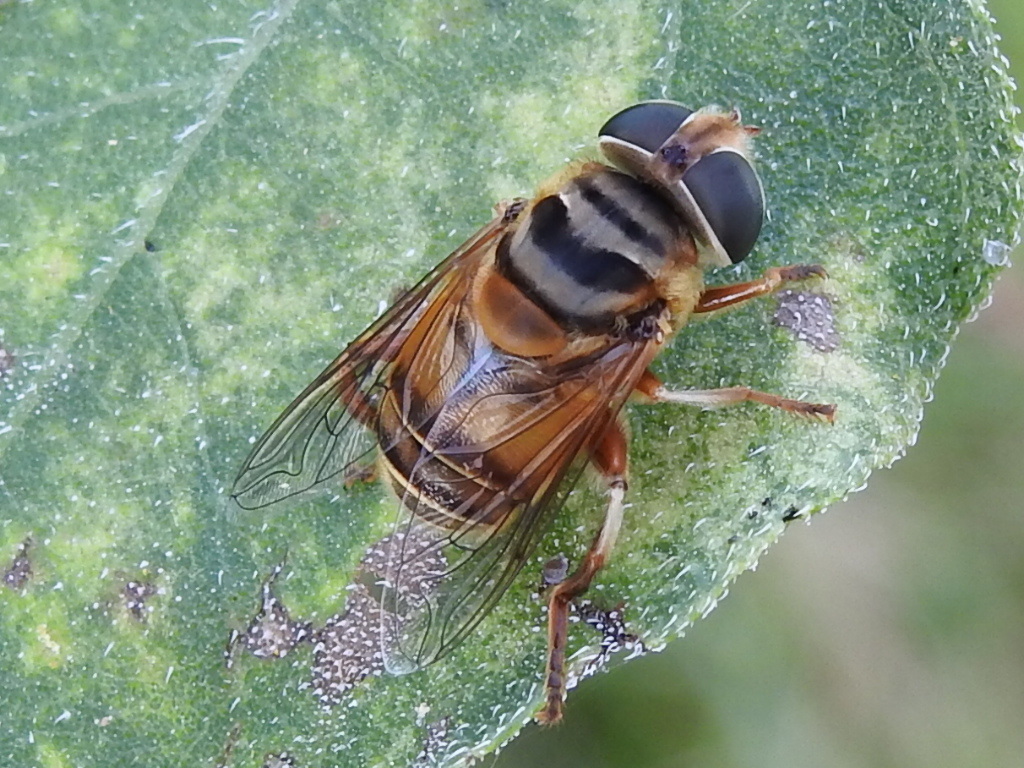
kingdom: Animalia
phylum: Arthropoda
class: Insecta
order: Diptera
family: Syrphidae
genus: Palpada
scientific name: Palpada vinetorum
